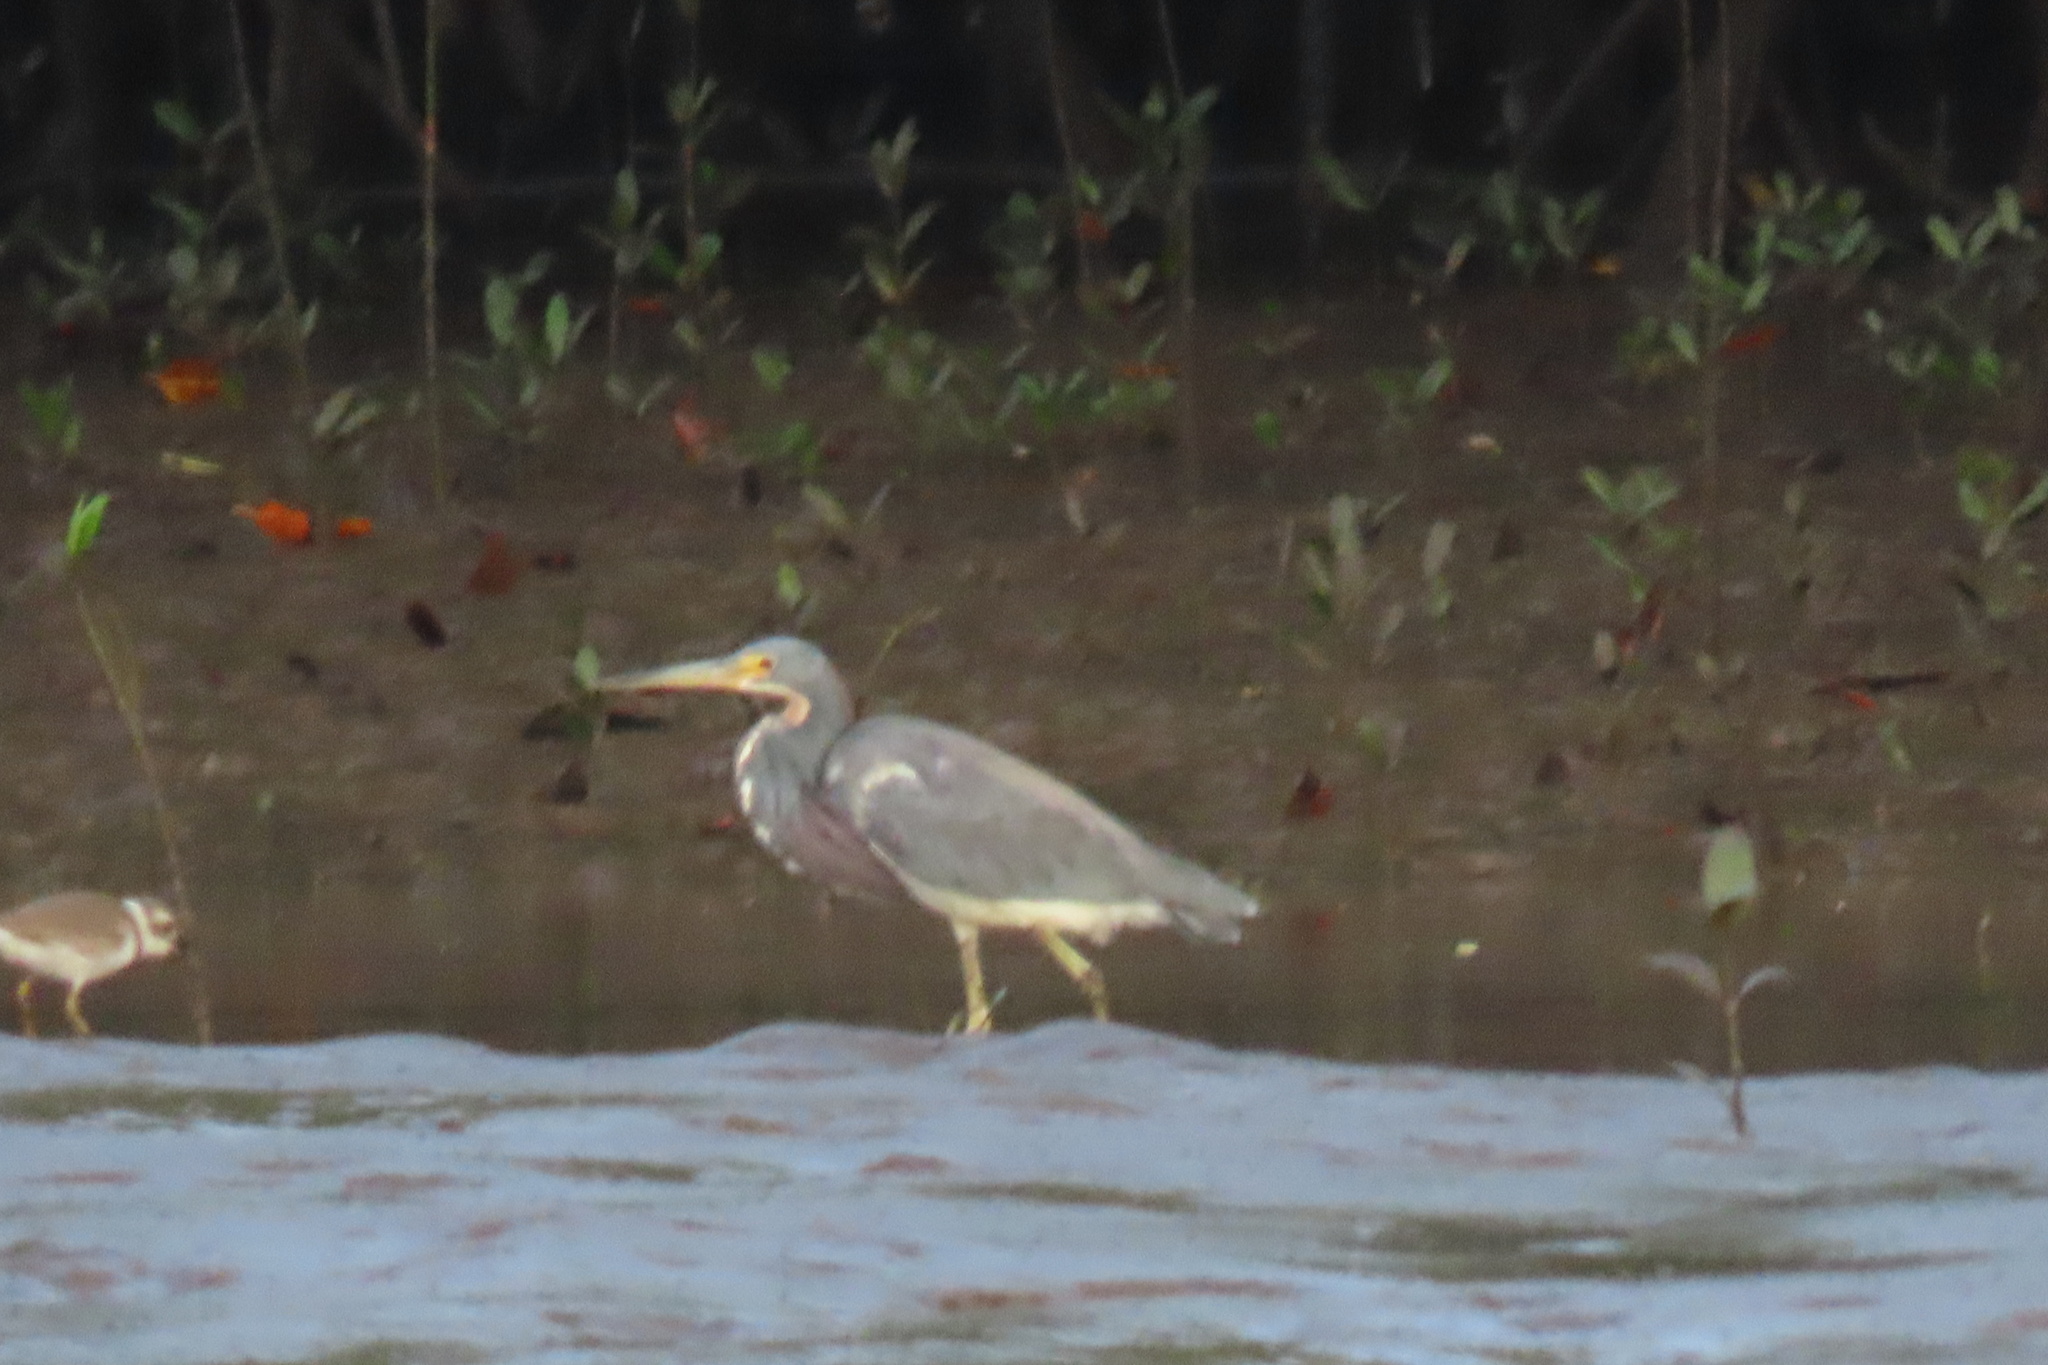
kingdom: Animalia
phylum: Chordata
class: Aves
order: Pelecaniformes
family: Ardeidae
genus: Egretta
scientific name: Egretta tricolor
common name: Tricolored heron
